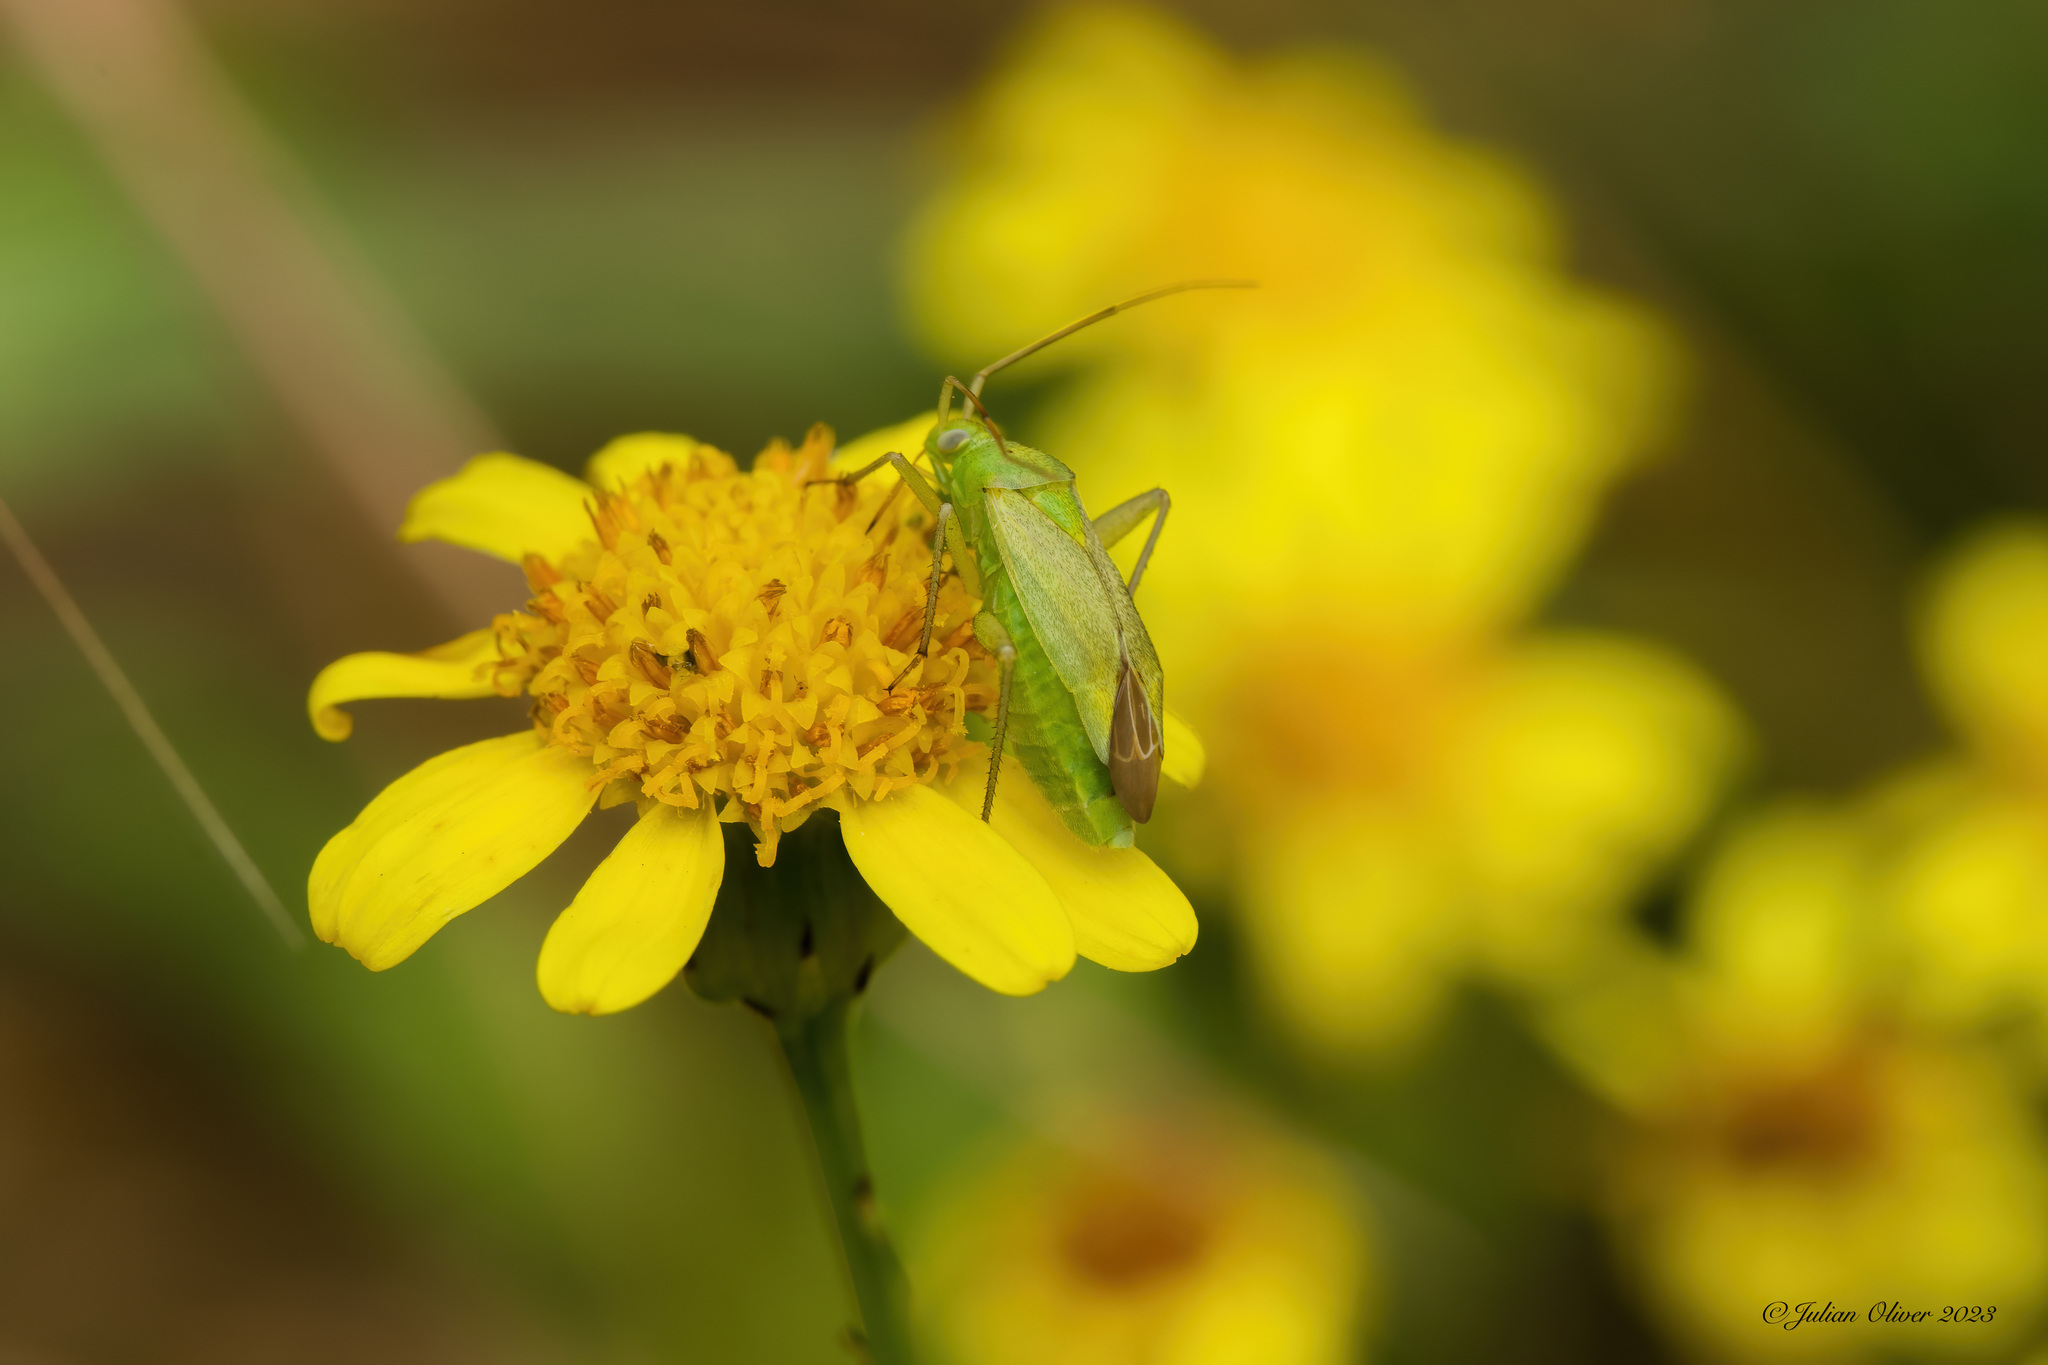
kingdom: Animalia
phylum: Arthropoda
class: Insecta
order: Hemiptera
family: Miridae
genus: Closterotomus
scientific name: Closterotomus norvegicus
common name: Plant bug
